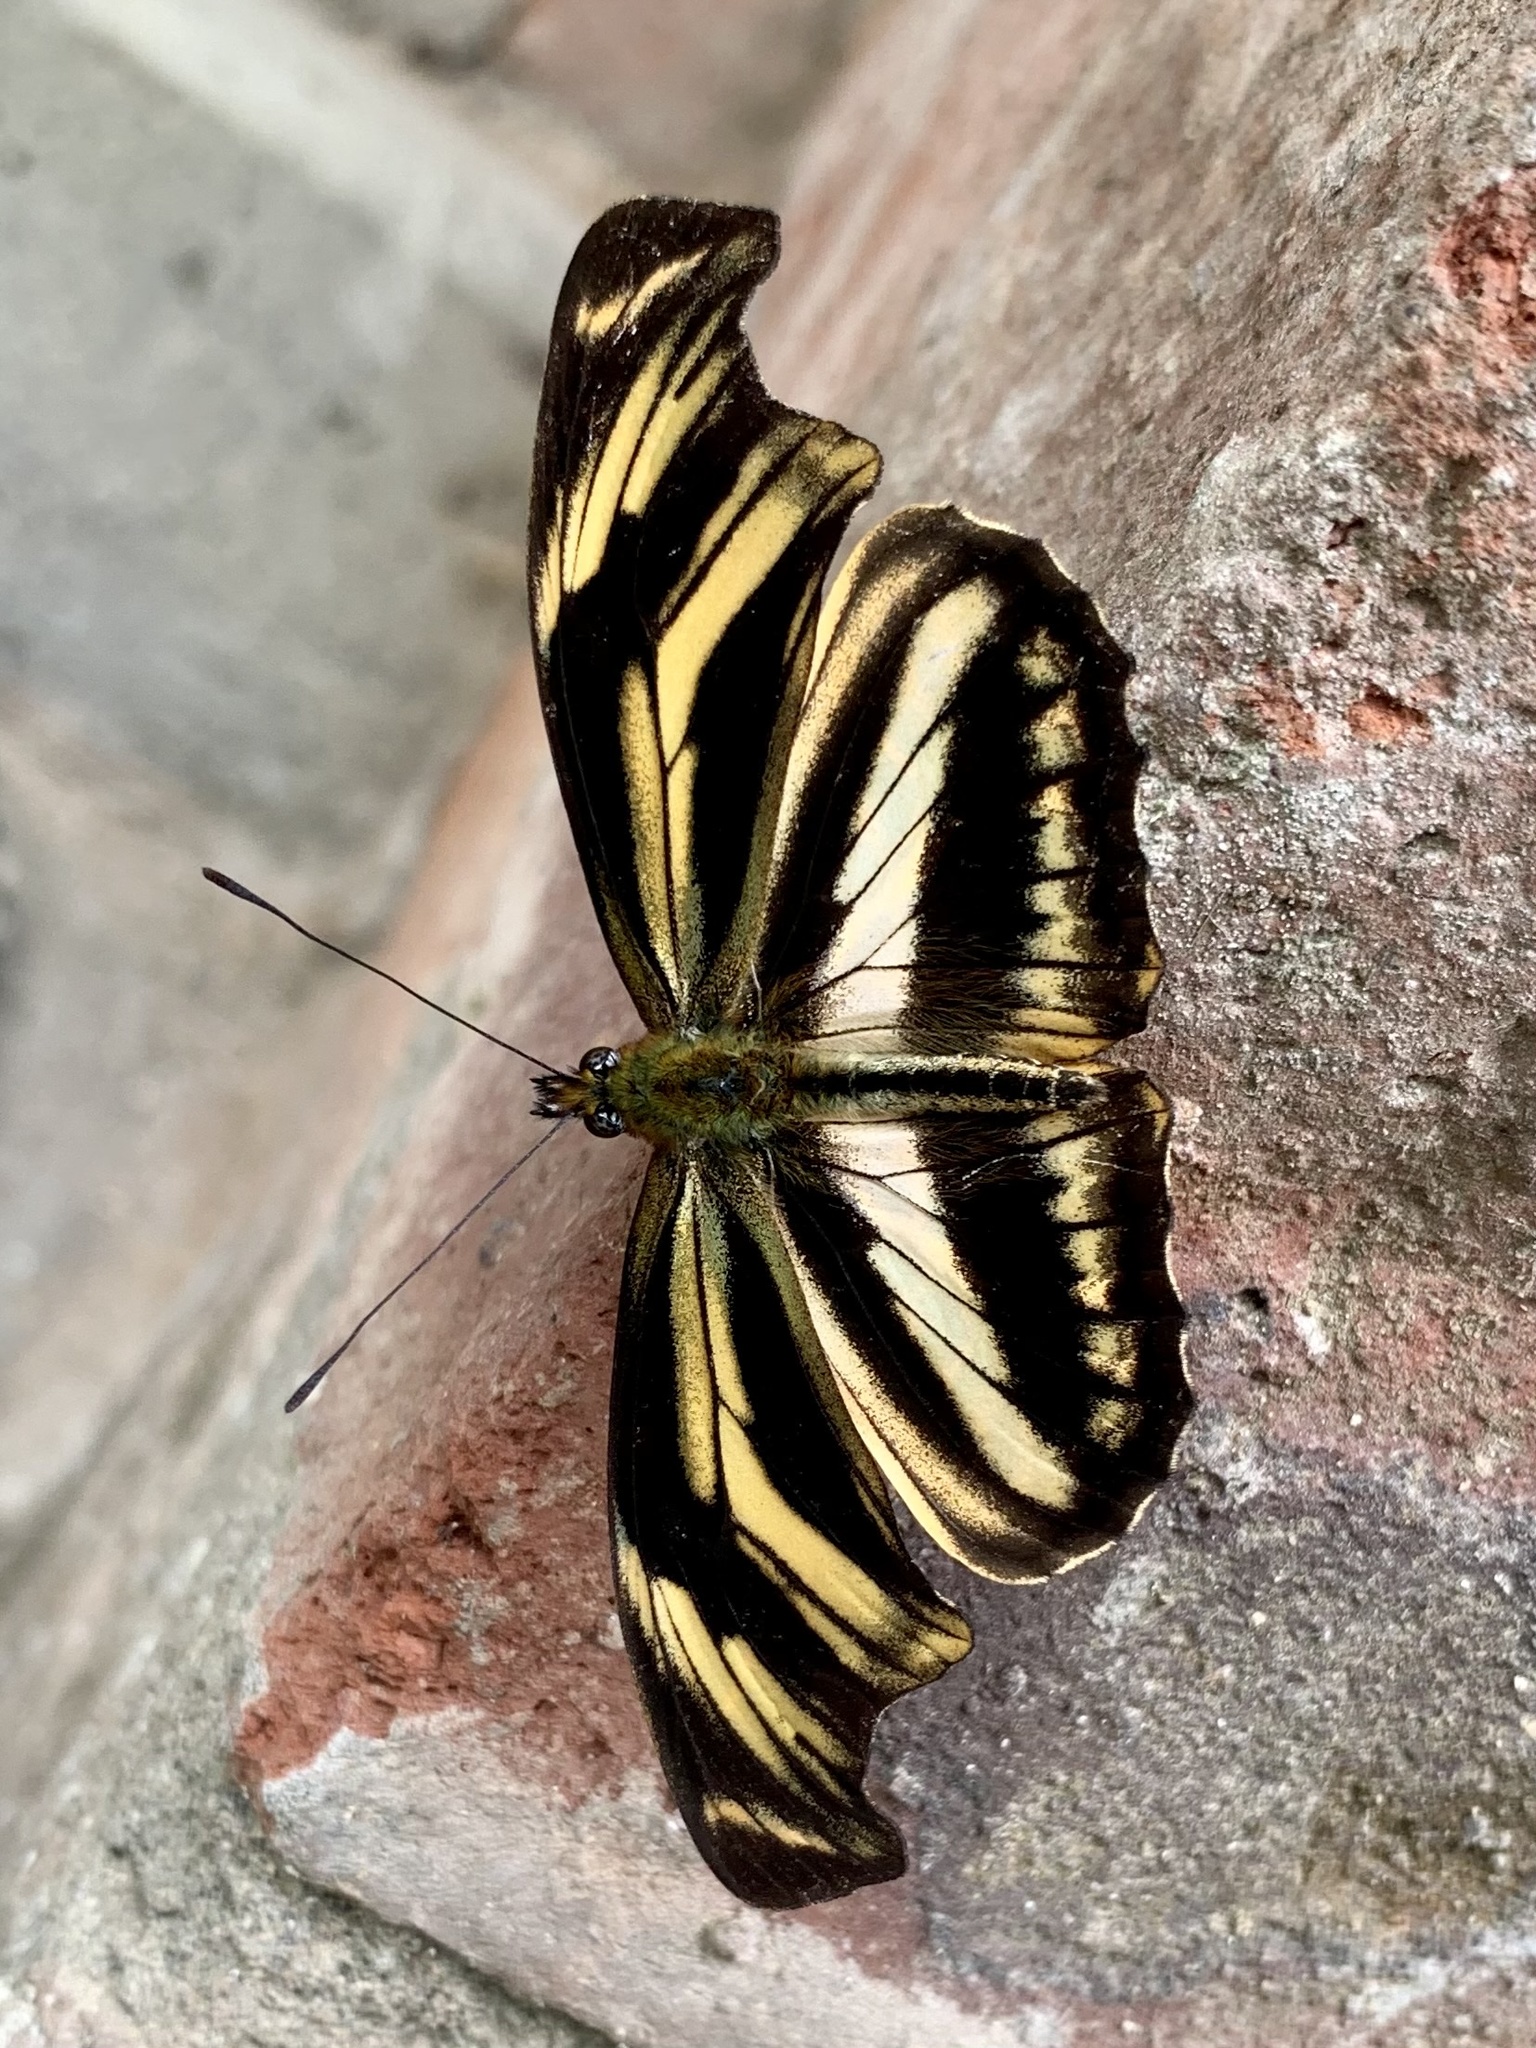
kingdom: Animalia
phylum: Arthropoda
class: Insecta
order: Lepidoptera
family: Nymphalidae
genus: Podotricha
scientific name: Podotricha judith
